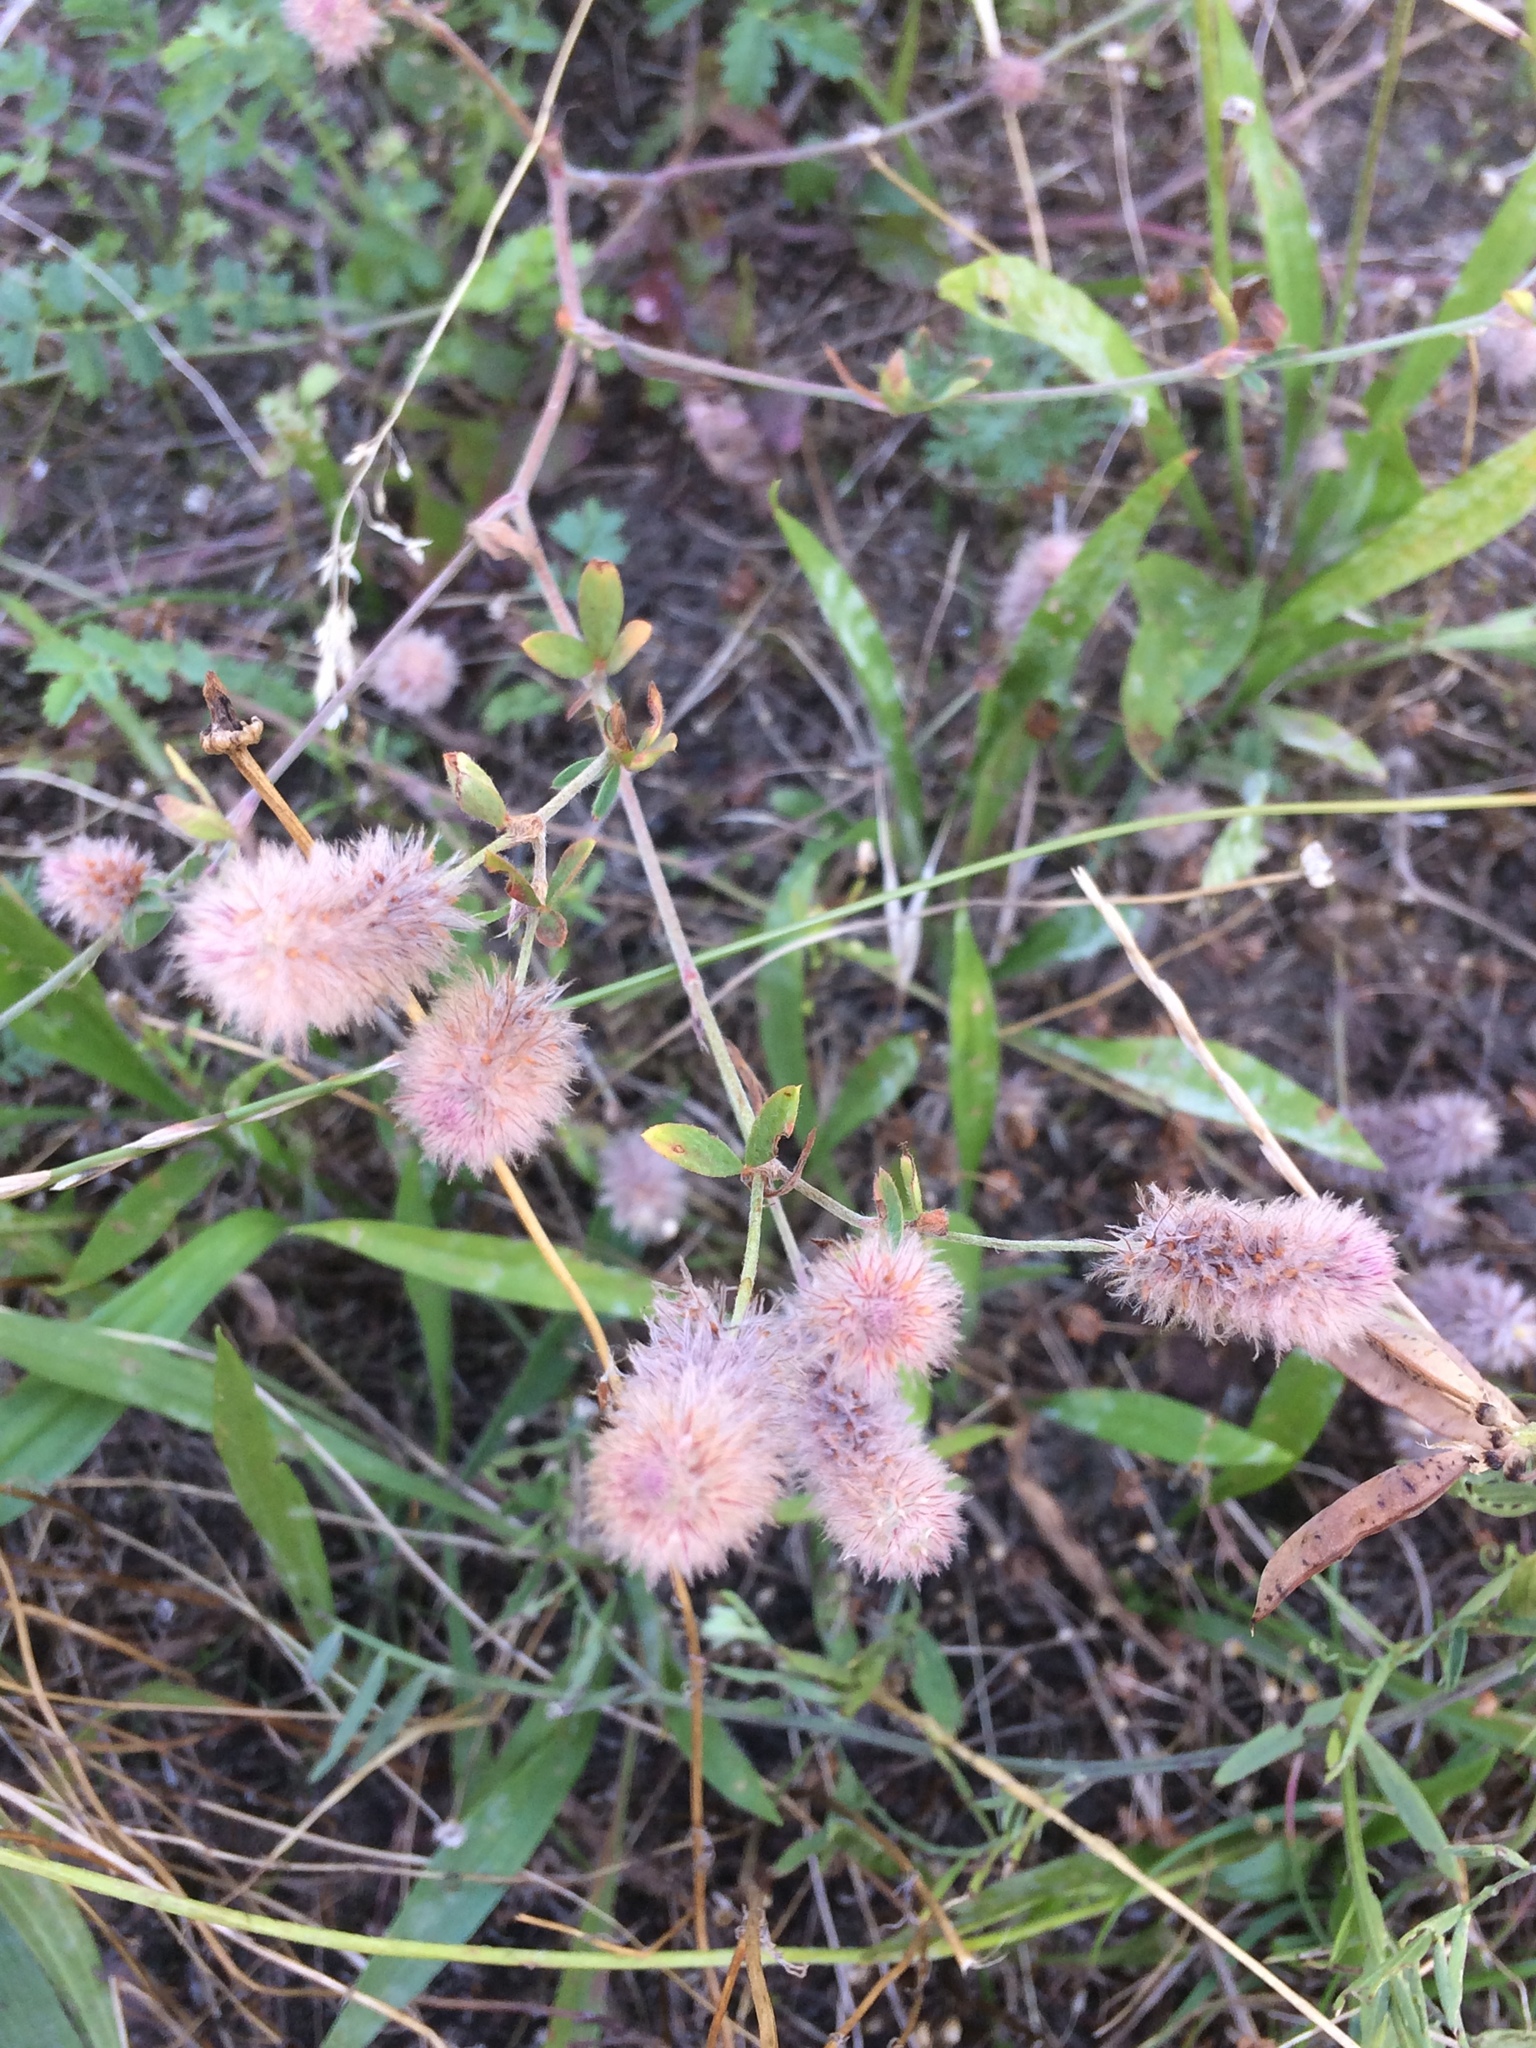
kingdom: Plantae
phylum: Tracheophyta
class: Magnoliopsida
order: Fabales
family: Fabaceae
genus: Trifolium
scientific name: Trifolium arvense
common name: Hare's-foot clover
